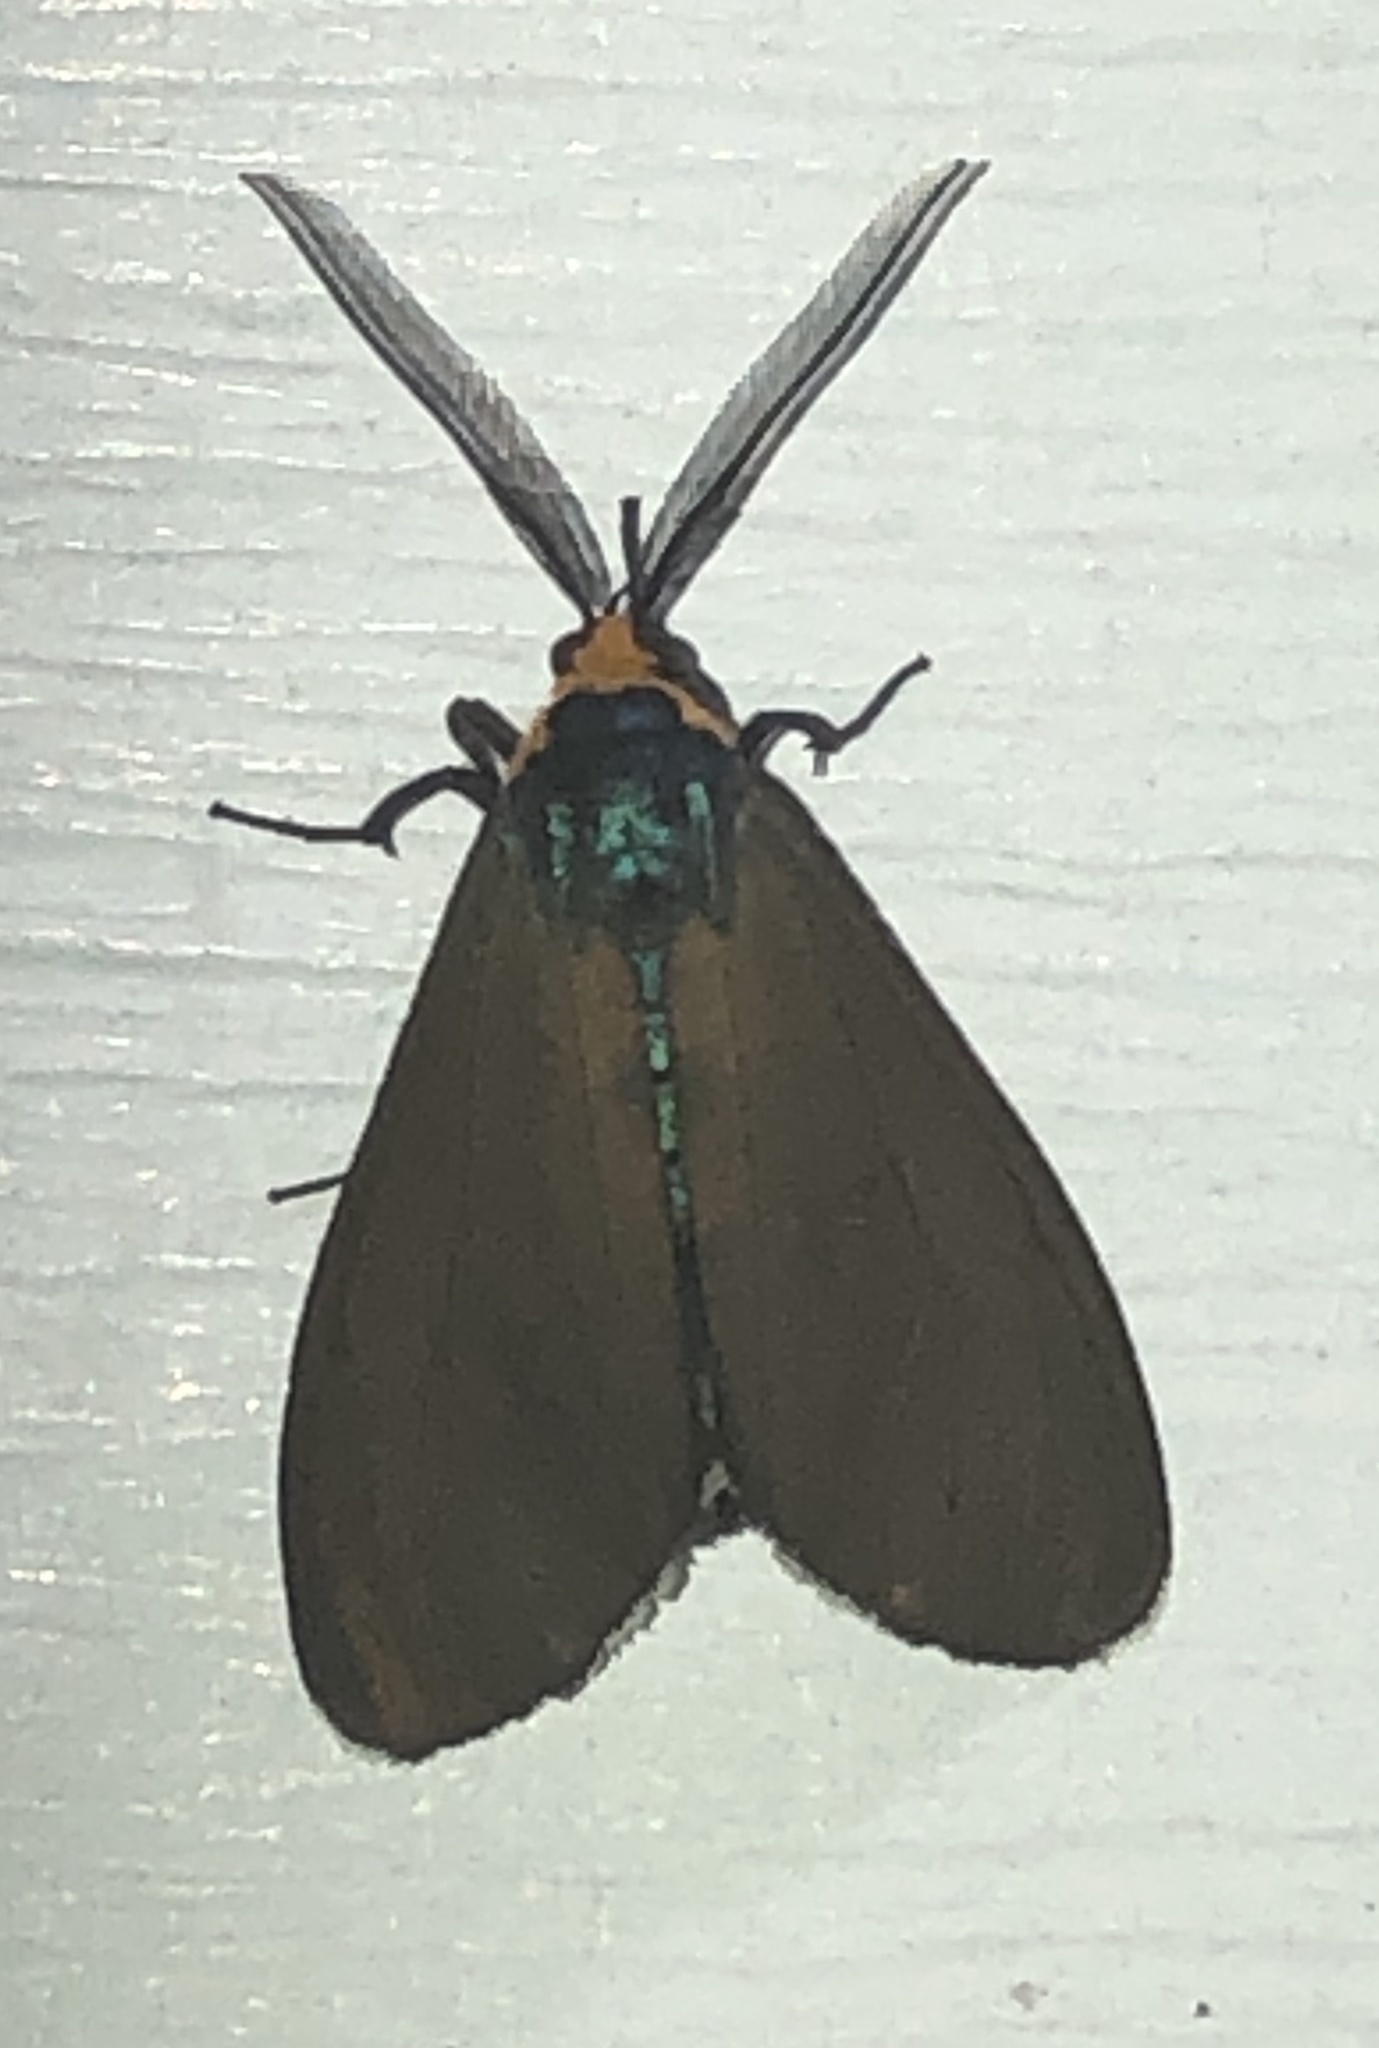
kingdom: Animalia
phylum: Arthropoda
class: Insecta
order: Lepidoptera
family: Erebidae
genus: Ctenucha
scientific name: Ctenucha virginica
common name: Virginia ctenucha moth
